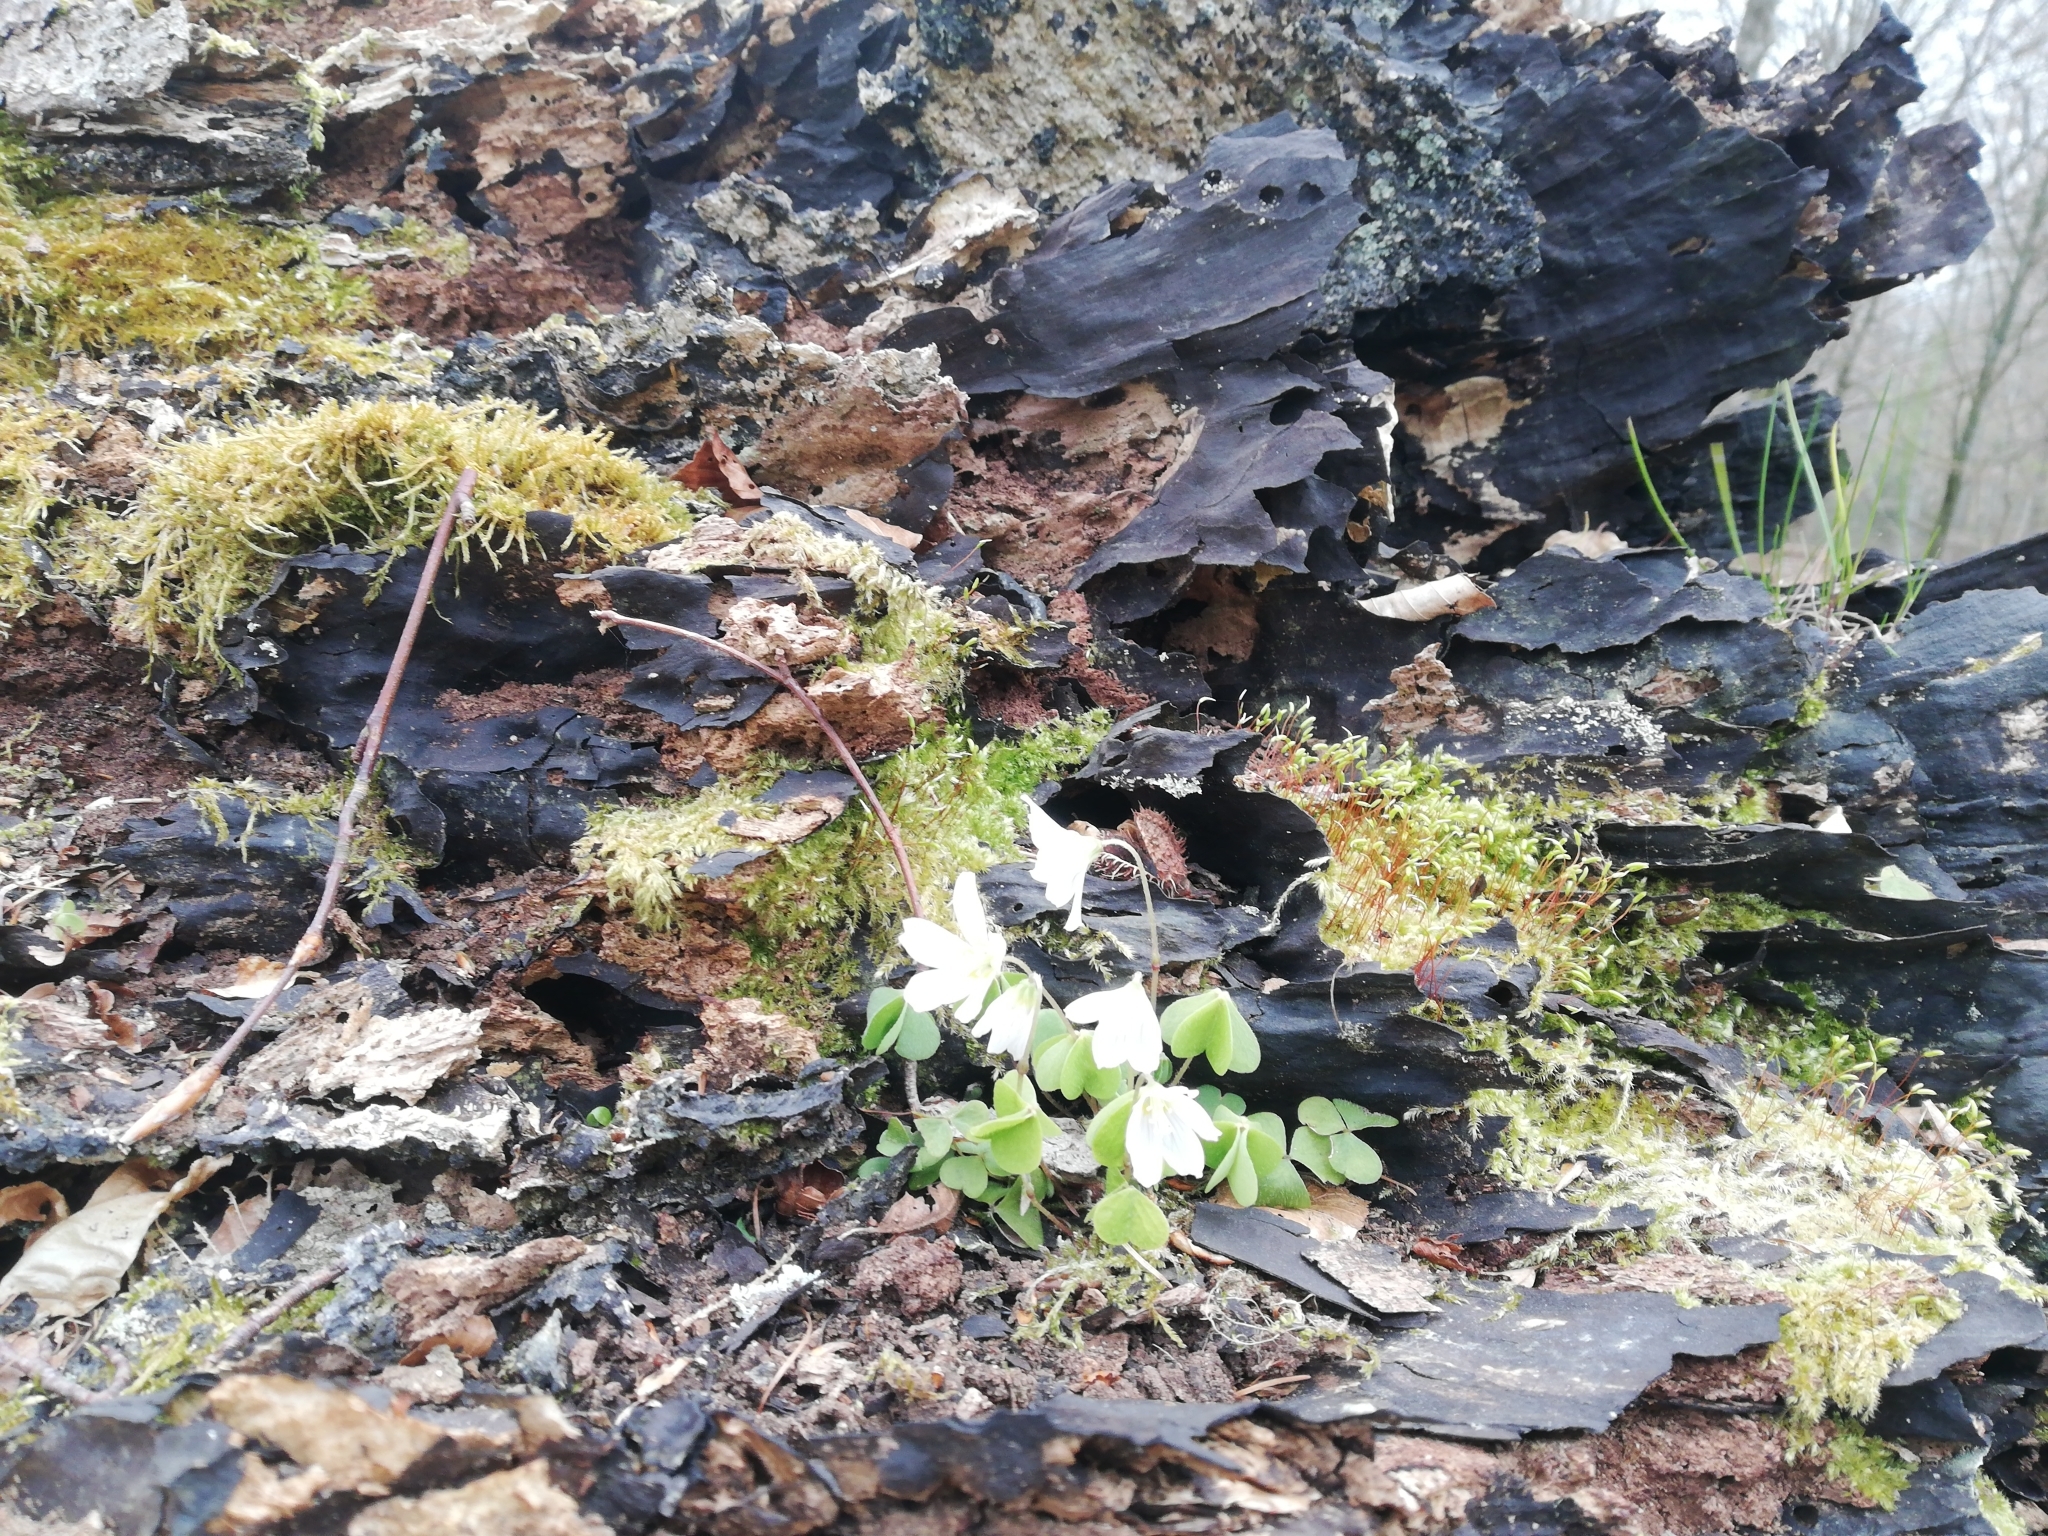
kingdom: Plantae
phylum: Tracheophyta
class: Magnoliopsida
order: Oxalidales
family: Oxalidaceae
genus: Oxalis
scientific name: Oxalis acetosella
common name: Wood-sorrel
